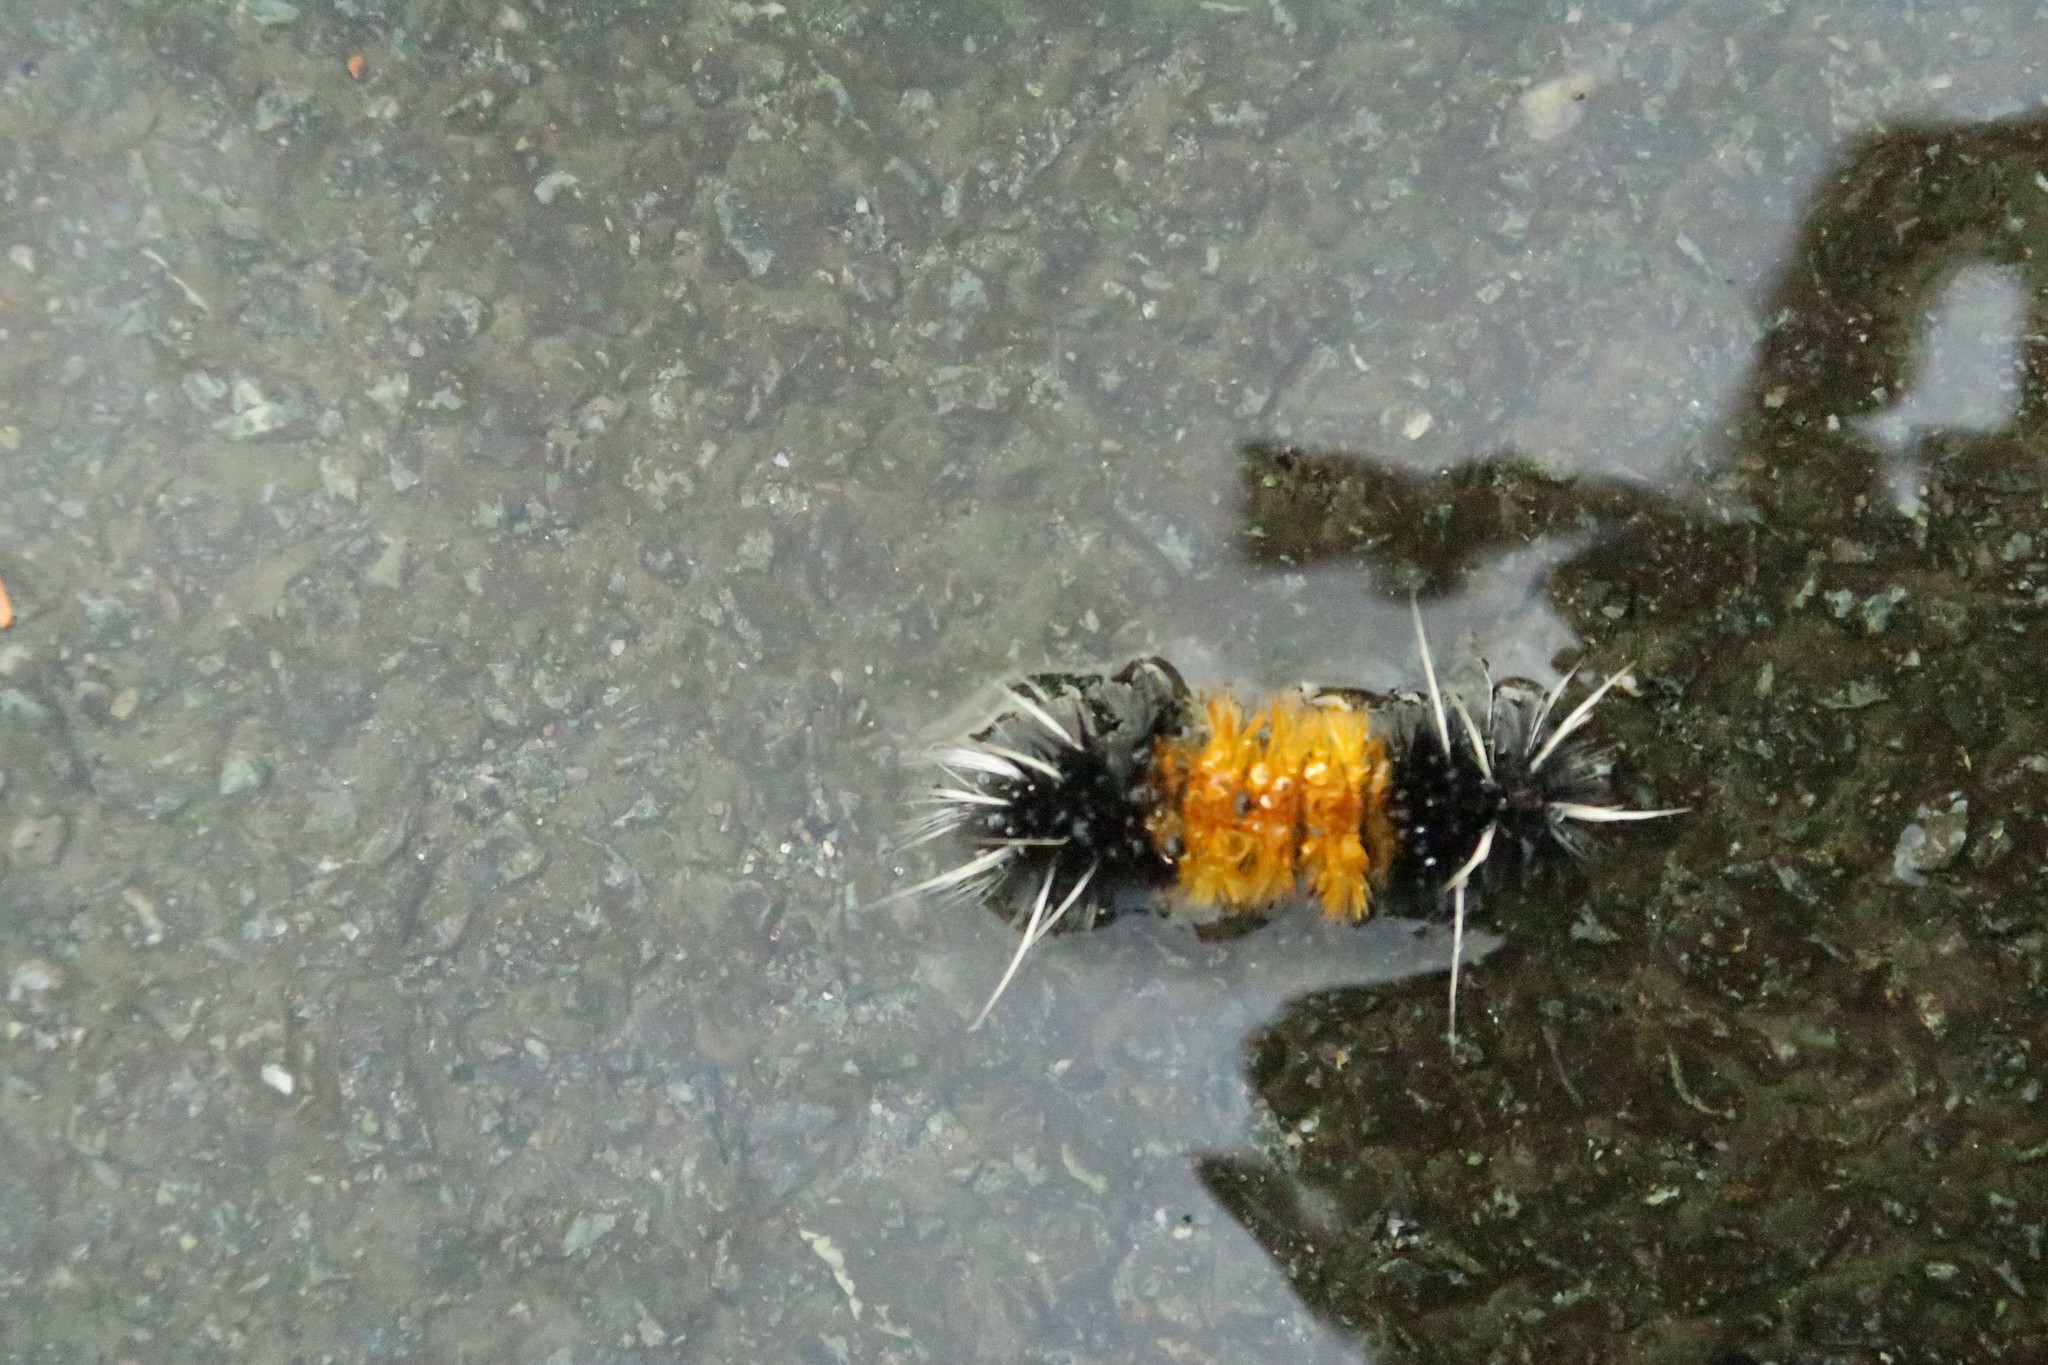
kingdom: Animalia
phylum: Arthropoda
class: Insecta
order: Lepidoptera
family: Erebidae
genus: Lophocampa
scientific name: Lophocampa maculata
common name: Spotted tussock moth
